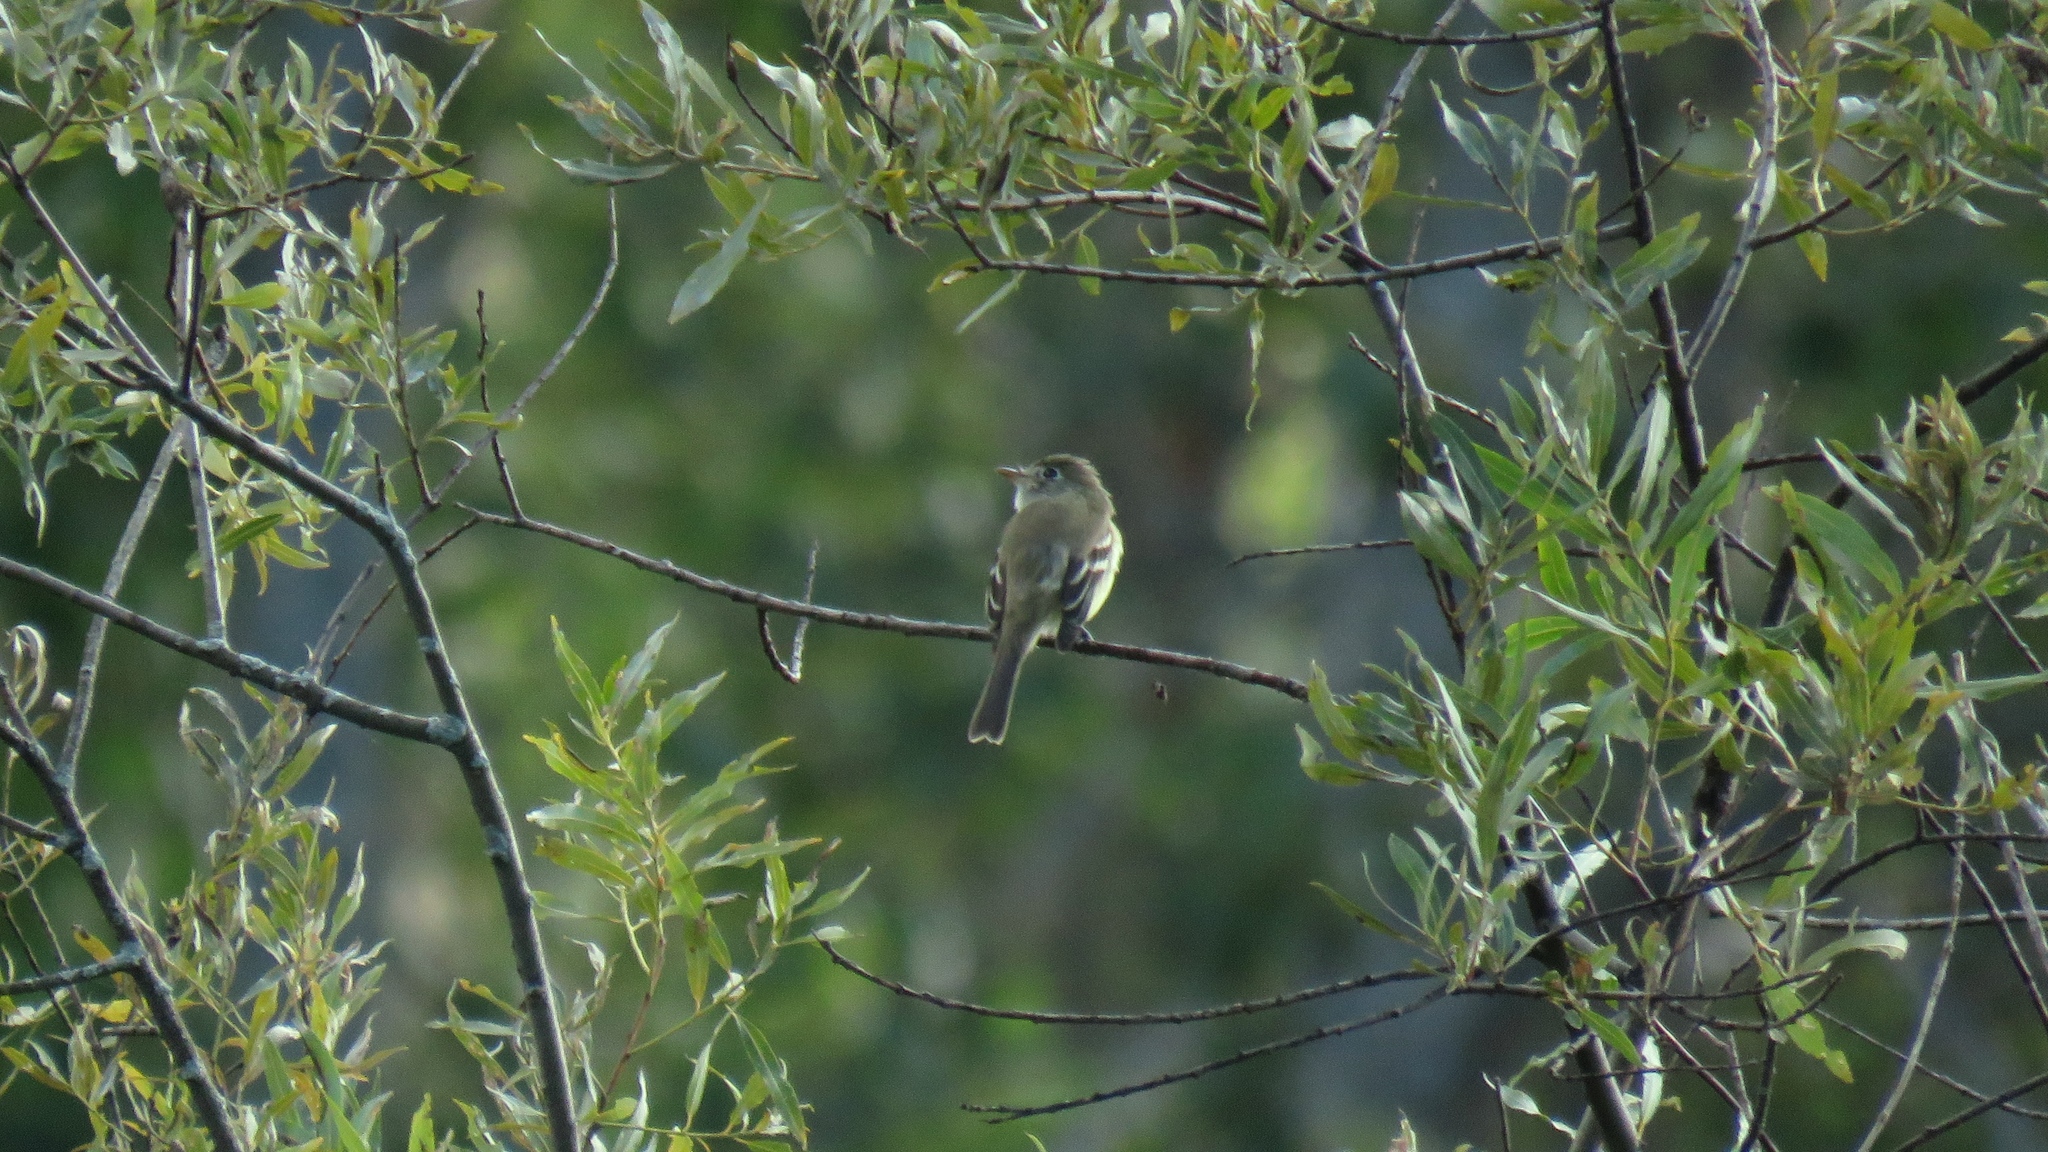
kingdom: Animalia
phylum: Chordata
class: Aves
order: Passeriformes
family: Tyrannidae
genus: Empidonax
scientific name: Empidonax flaviventris
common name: Yellow-bellied flycatcher
